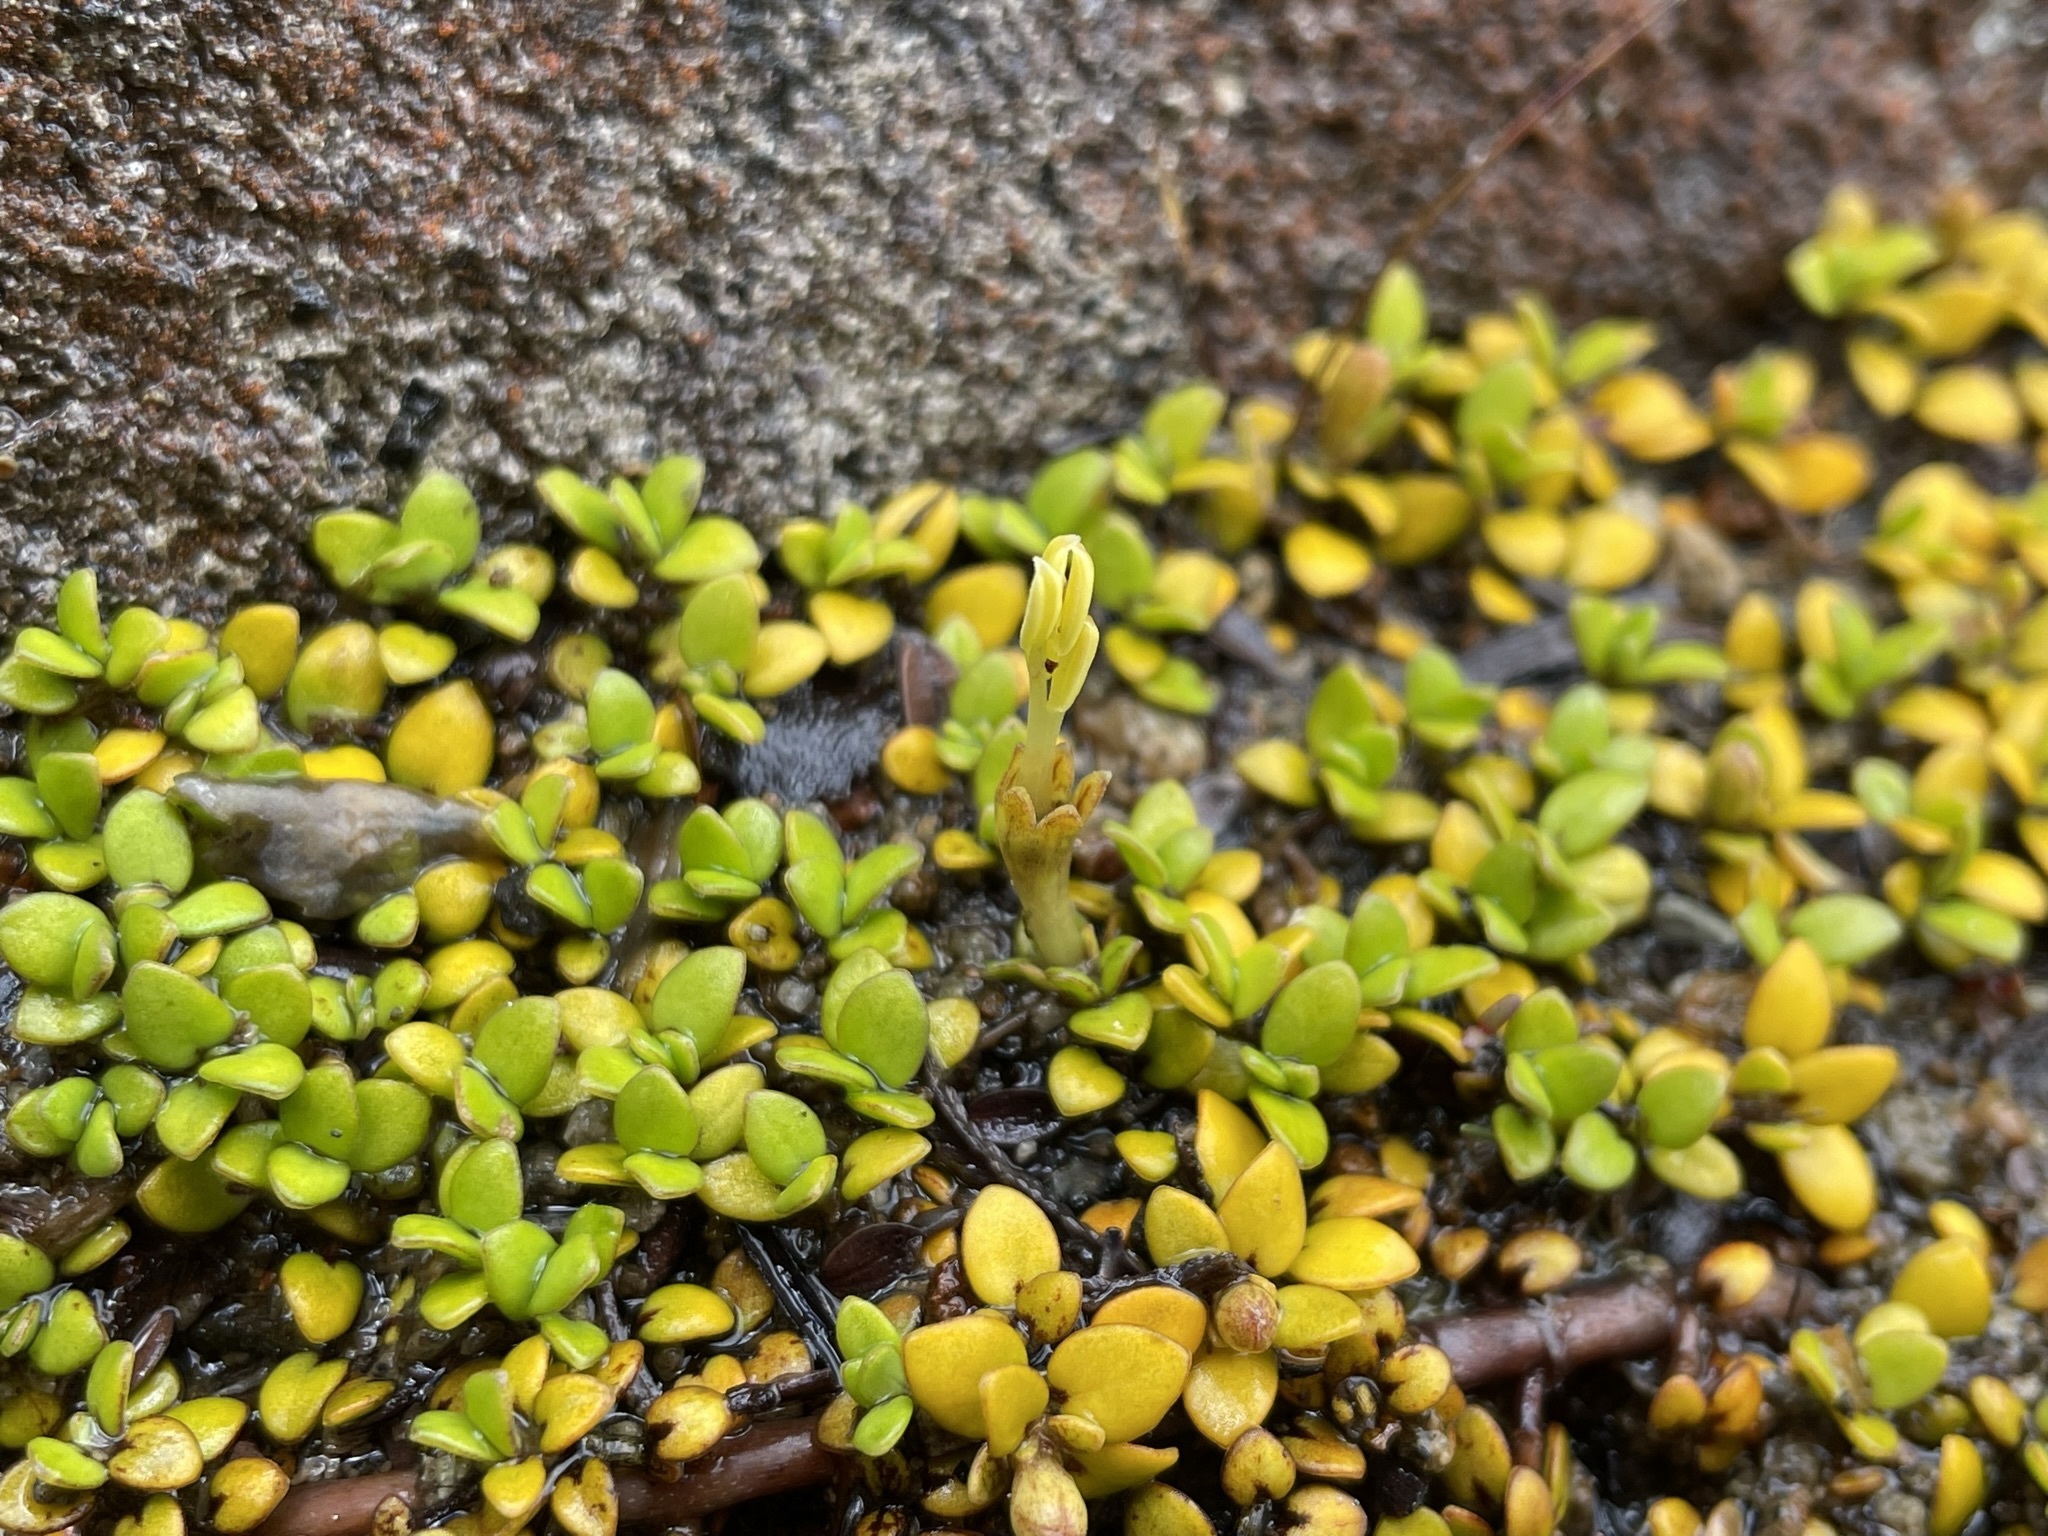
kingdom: Plantae
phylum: Tracheophyta
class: Magnoliopsida
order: Gentianales
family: Rubiaceae
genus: Coprosma
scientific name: Coprosma perpusilla
